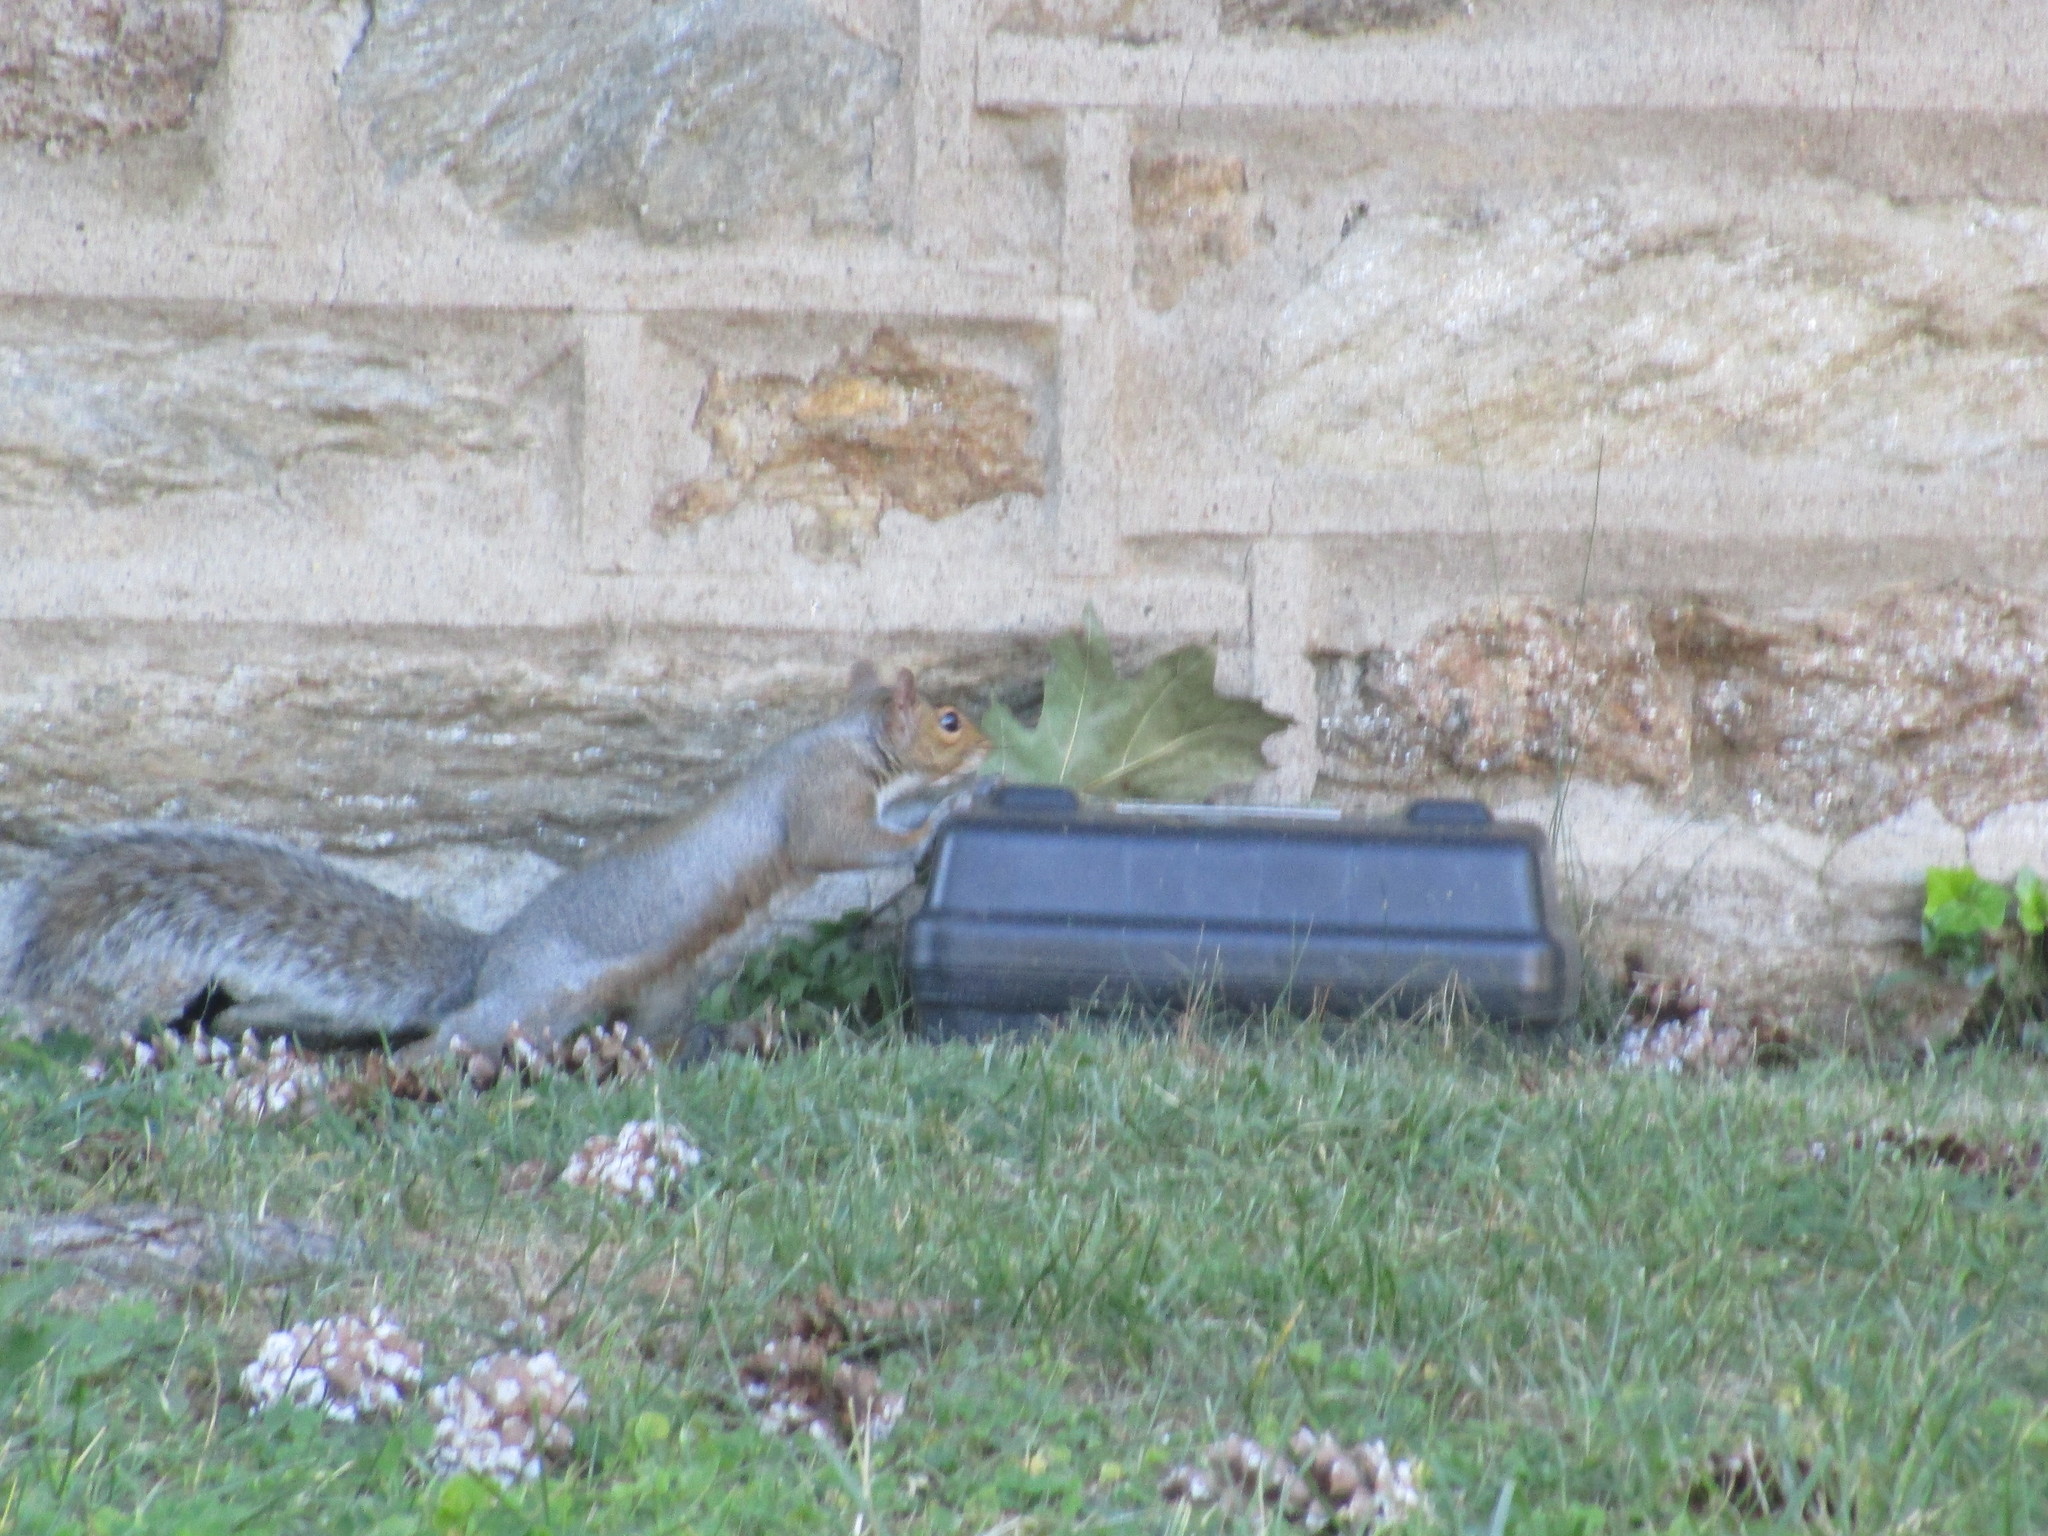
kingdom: Animalia
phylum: Chordata
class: Mammalia
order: Rodentia
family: Sciuridae
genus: Sciurus
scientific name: Sciurus carolinensis
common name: Eastern gray squirrel
